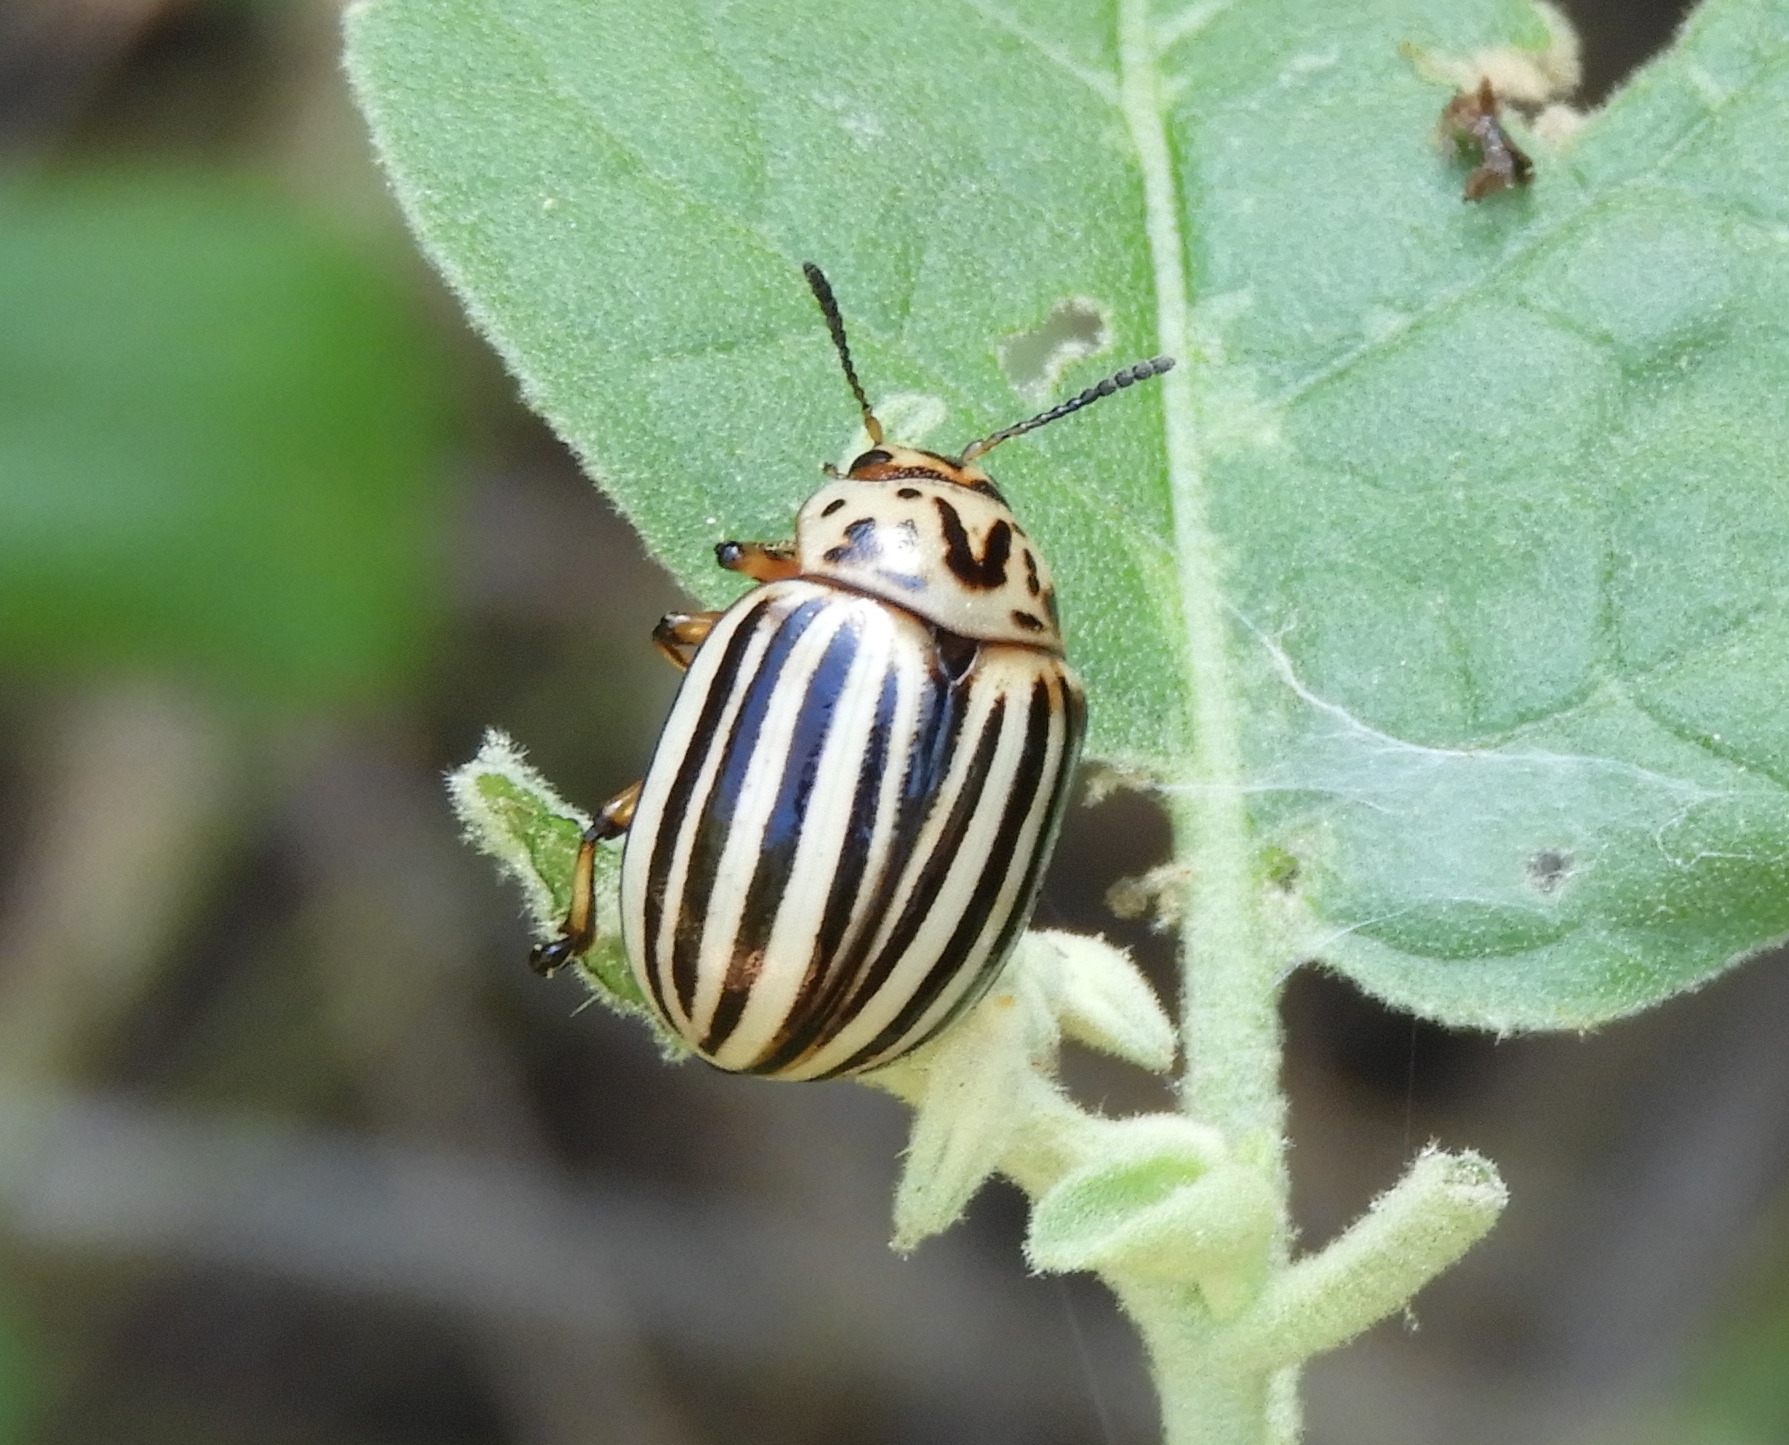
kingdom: Animalia
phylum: Arthropoda
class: Insecta
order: Coleoptera
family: Chrysomelidae
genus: Leptinotarsa
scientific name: Leptinotarsa decemlineata
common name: Colorado potato beetle
